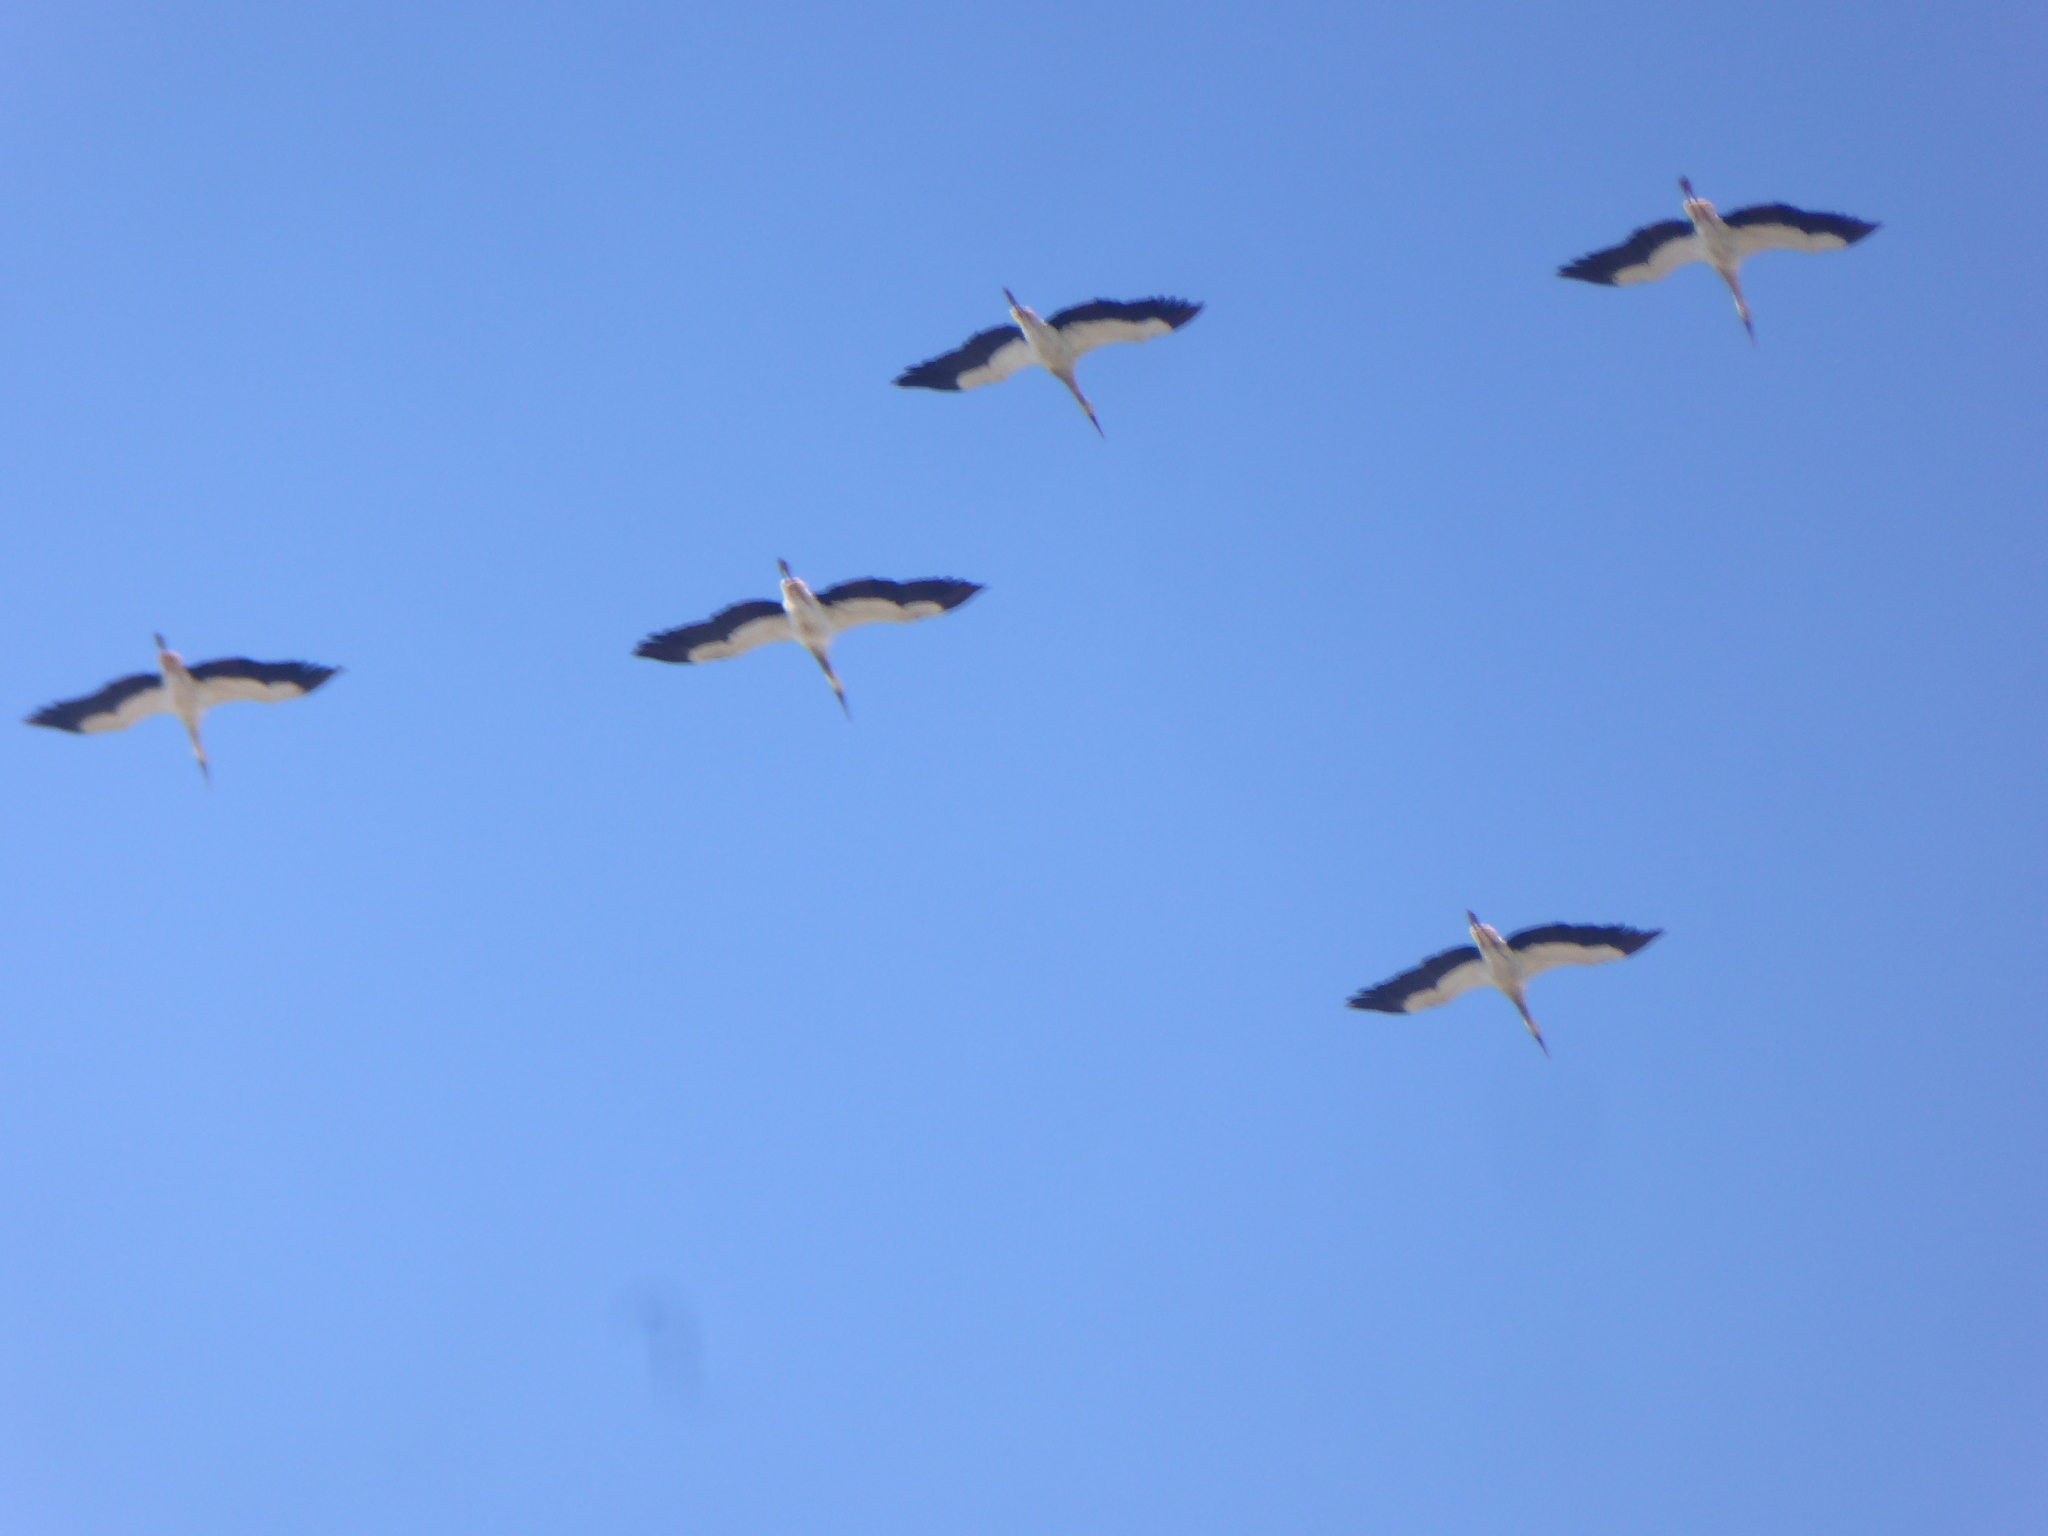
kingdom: Animalia
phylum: Chordata
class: Aves
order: Ciconiiformes
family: Ciconiidae
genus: Ciconia
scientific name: Ciconia ciconia
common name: White stork
